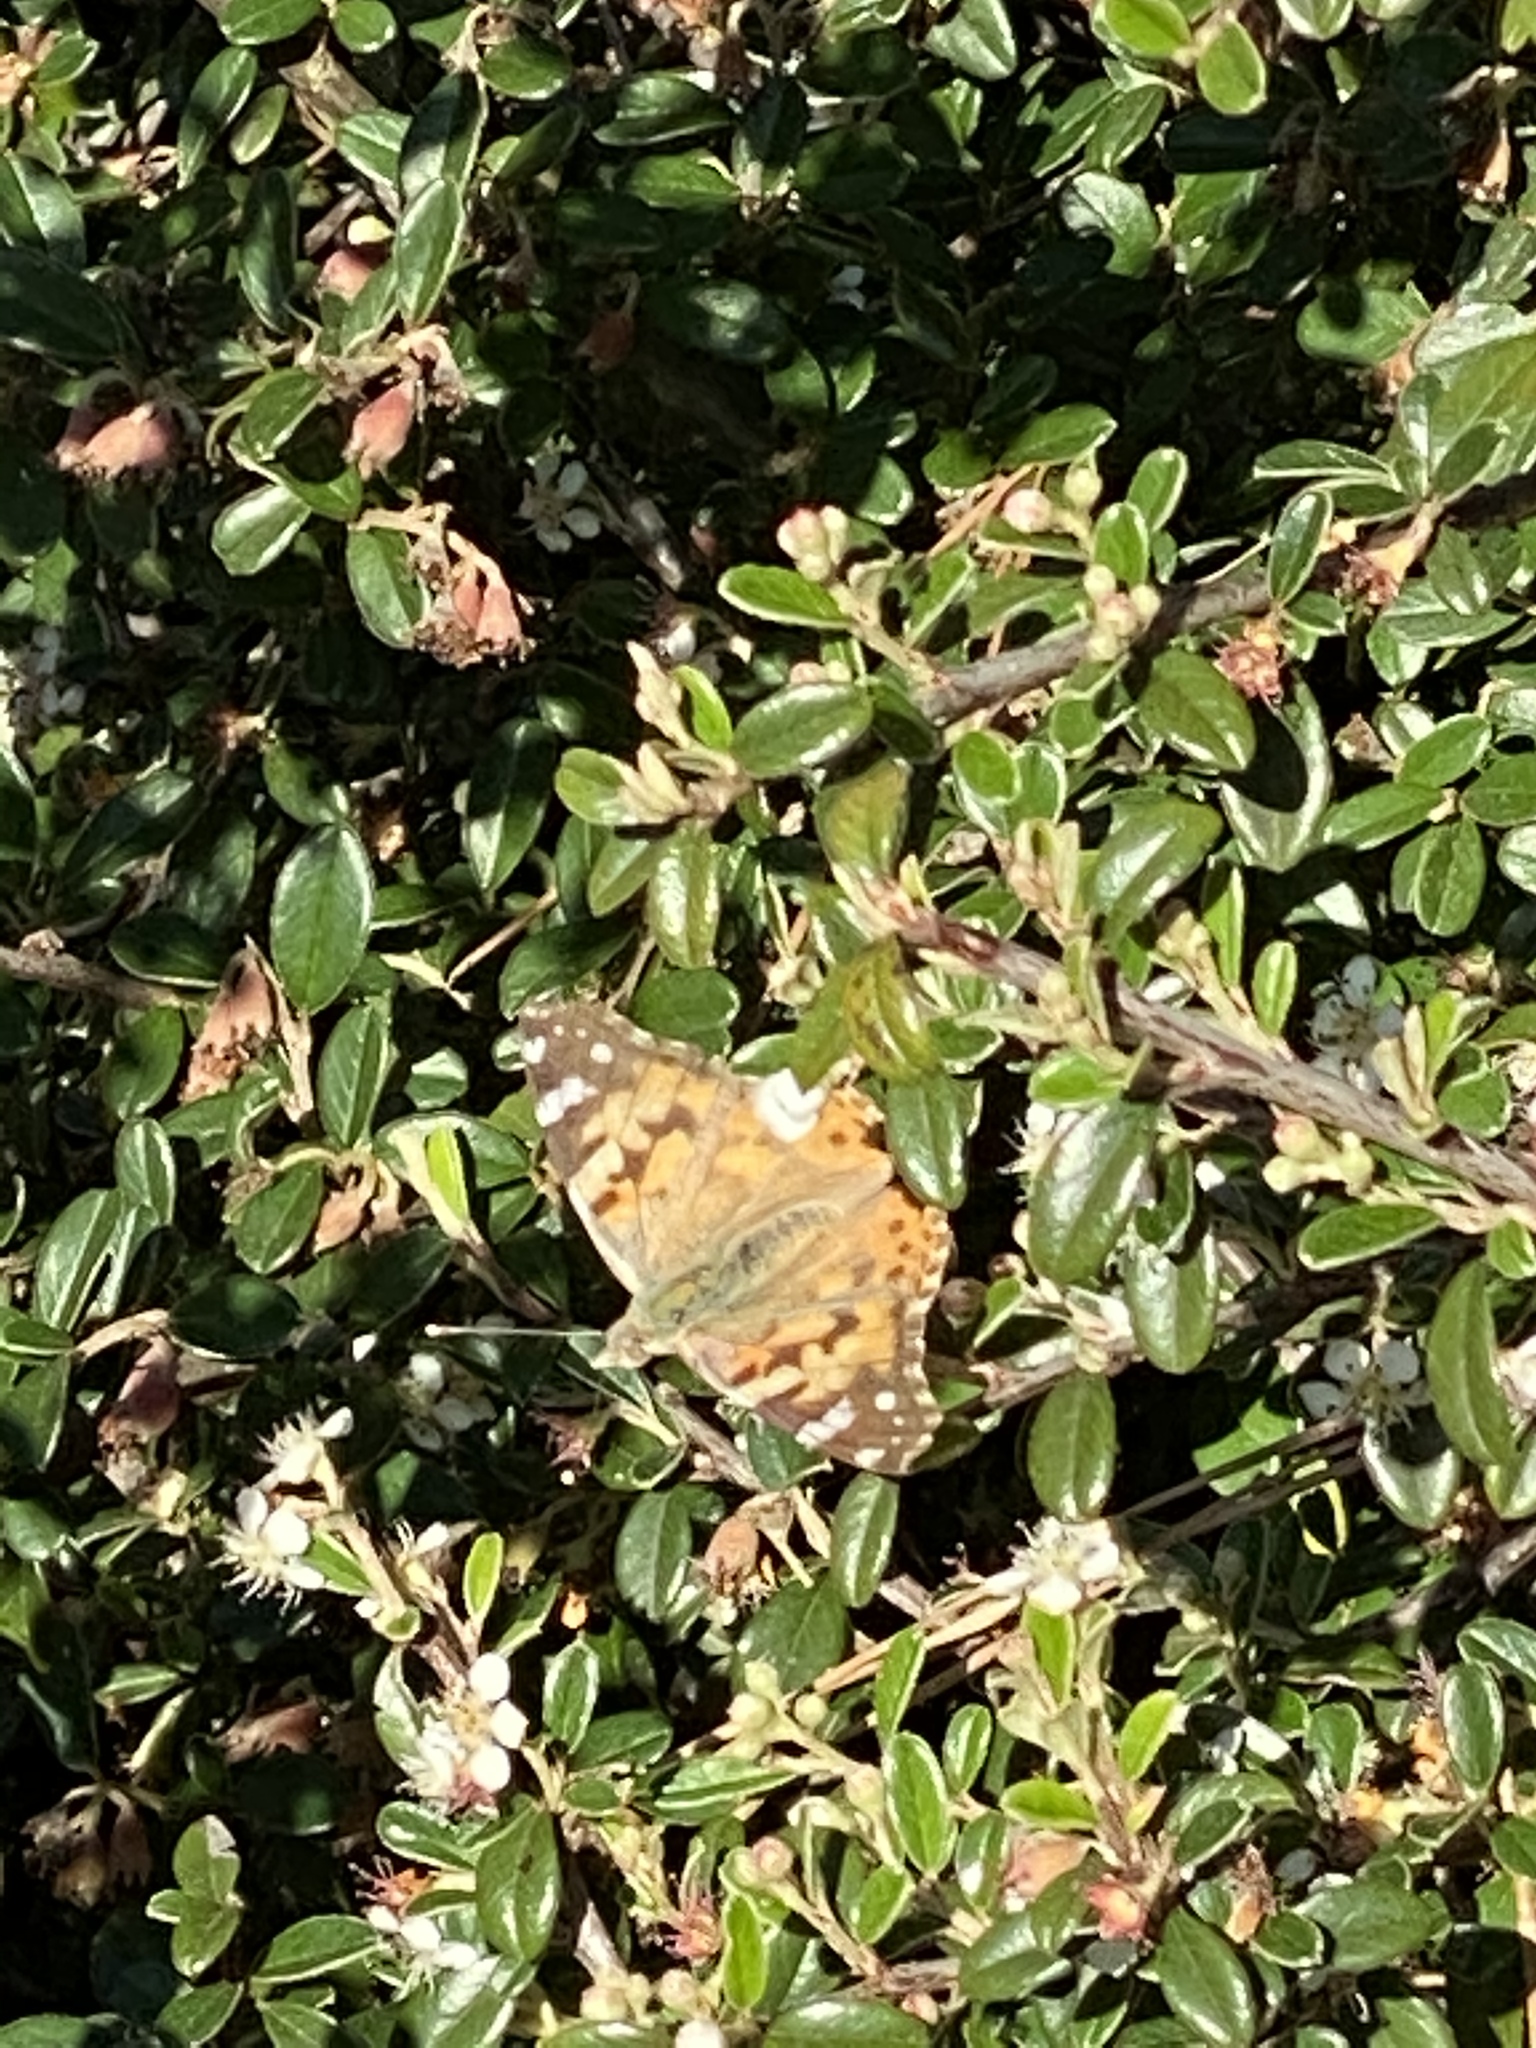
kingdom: Animalia
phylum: Arthropoda
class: Insecta
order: Lepidoptera
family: Nymphalidae
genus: Vanessa
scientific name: Vanessa cardui
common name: Painted lady
